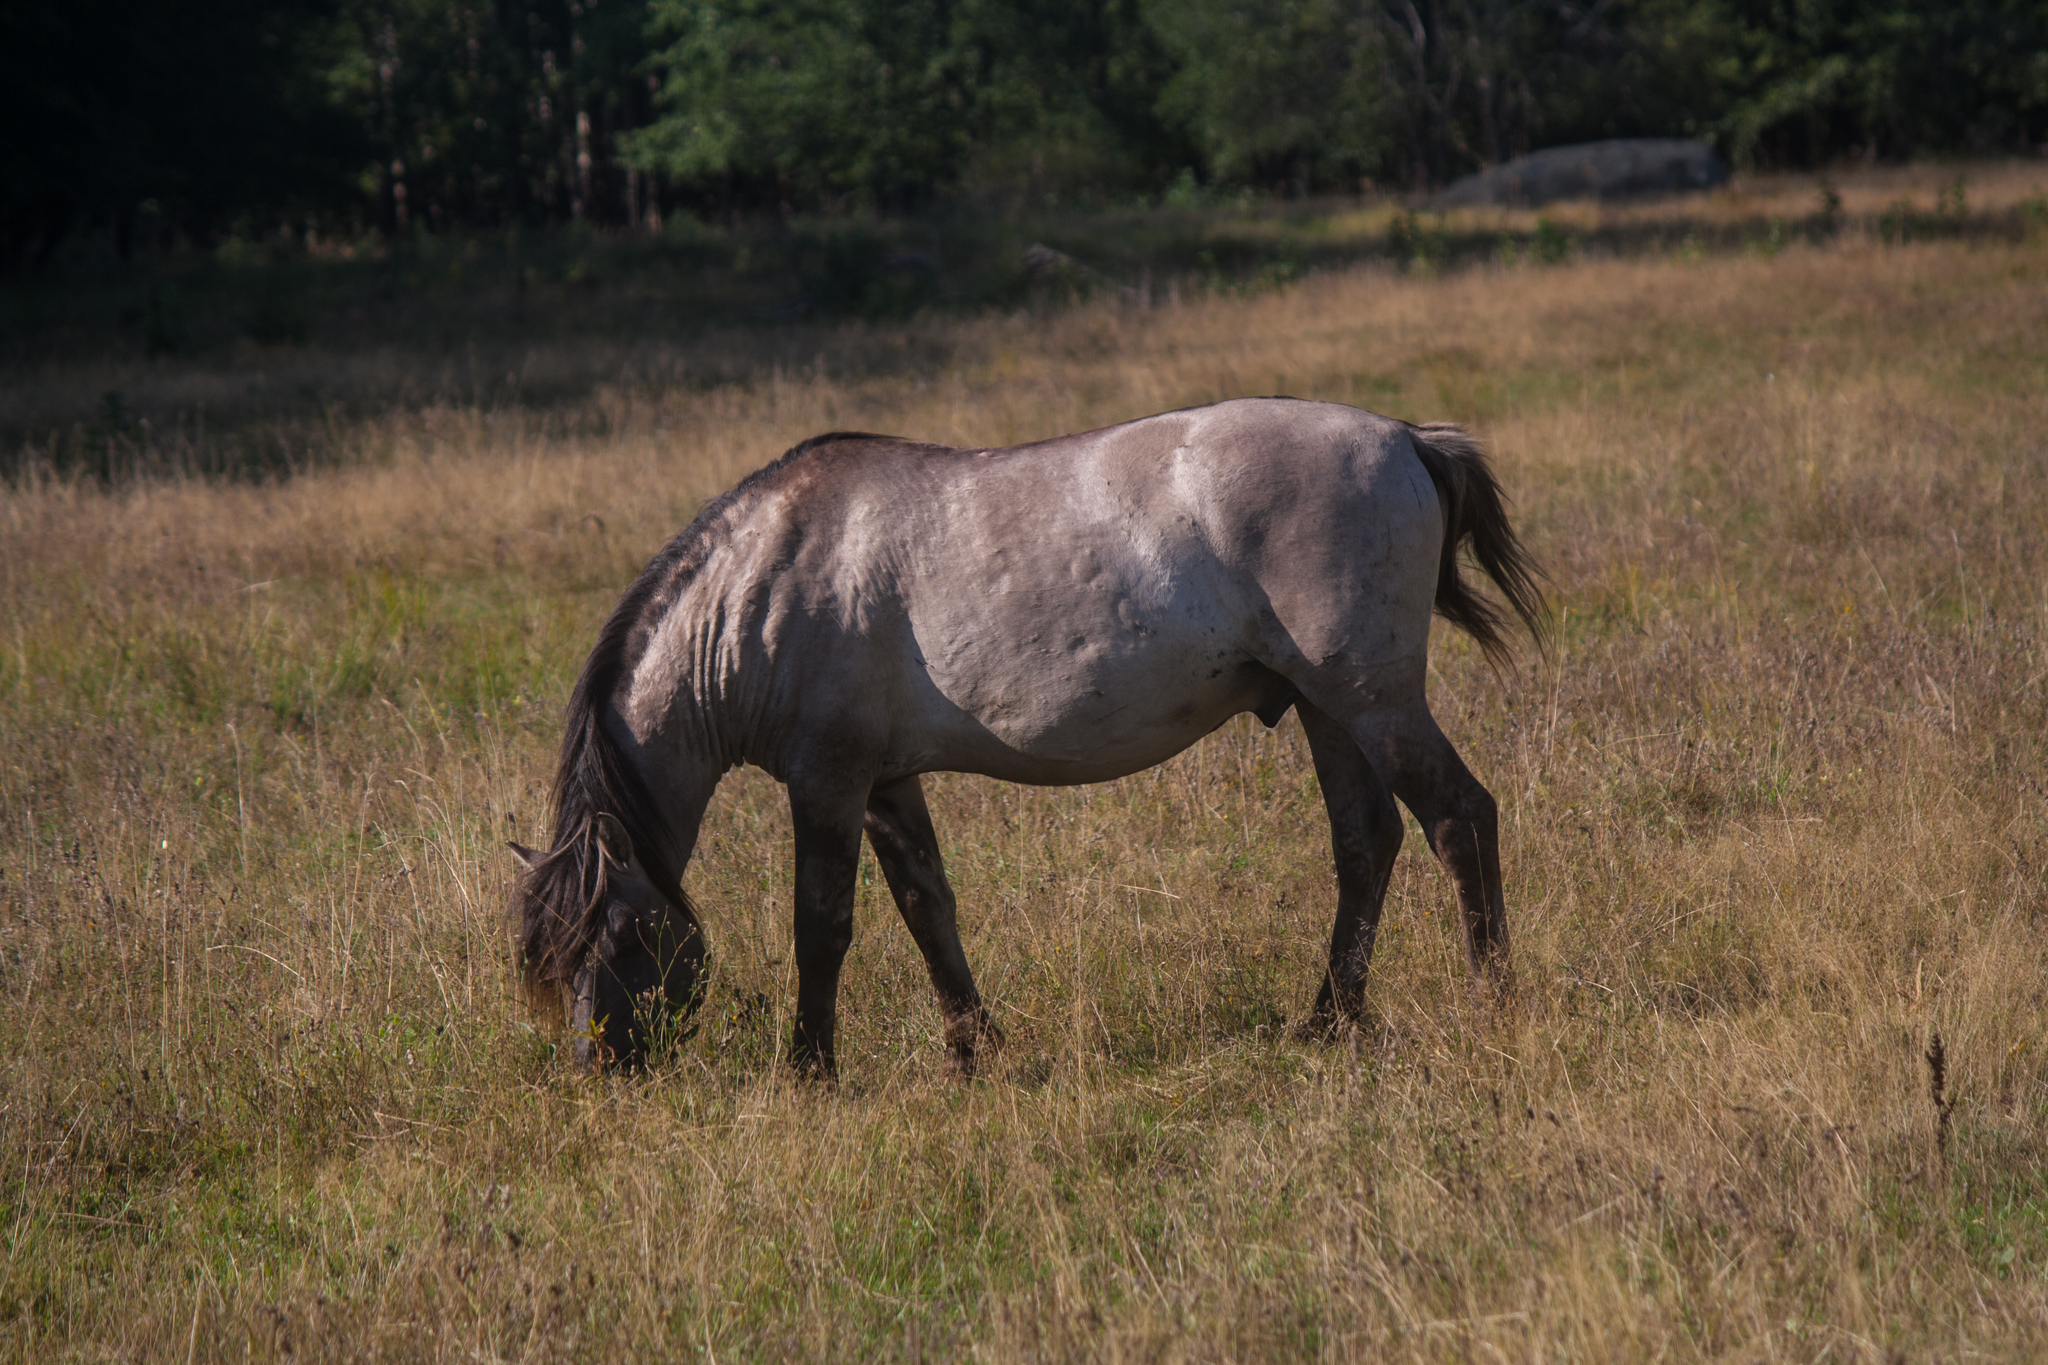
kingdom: Animalia
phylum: Chordata
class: Mammalia
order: Perissodactyla
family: Equidae
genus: Equus
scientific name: Equus caballus
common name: Horse
